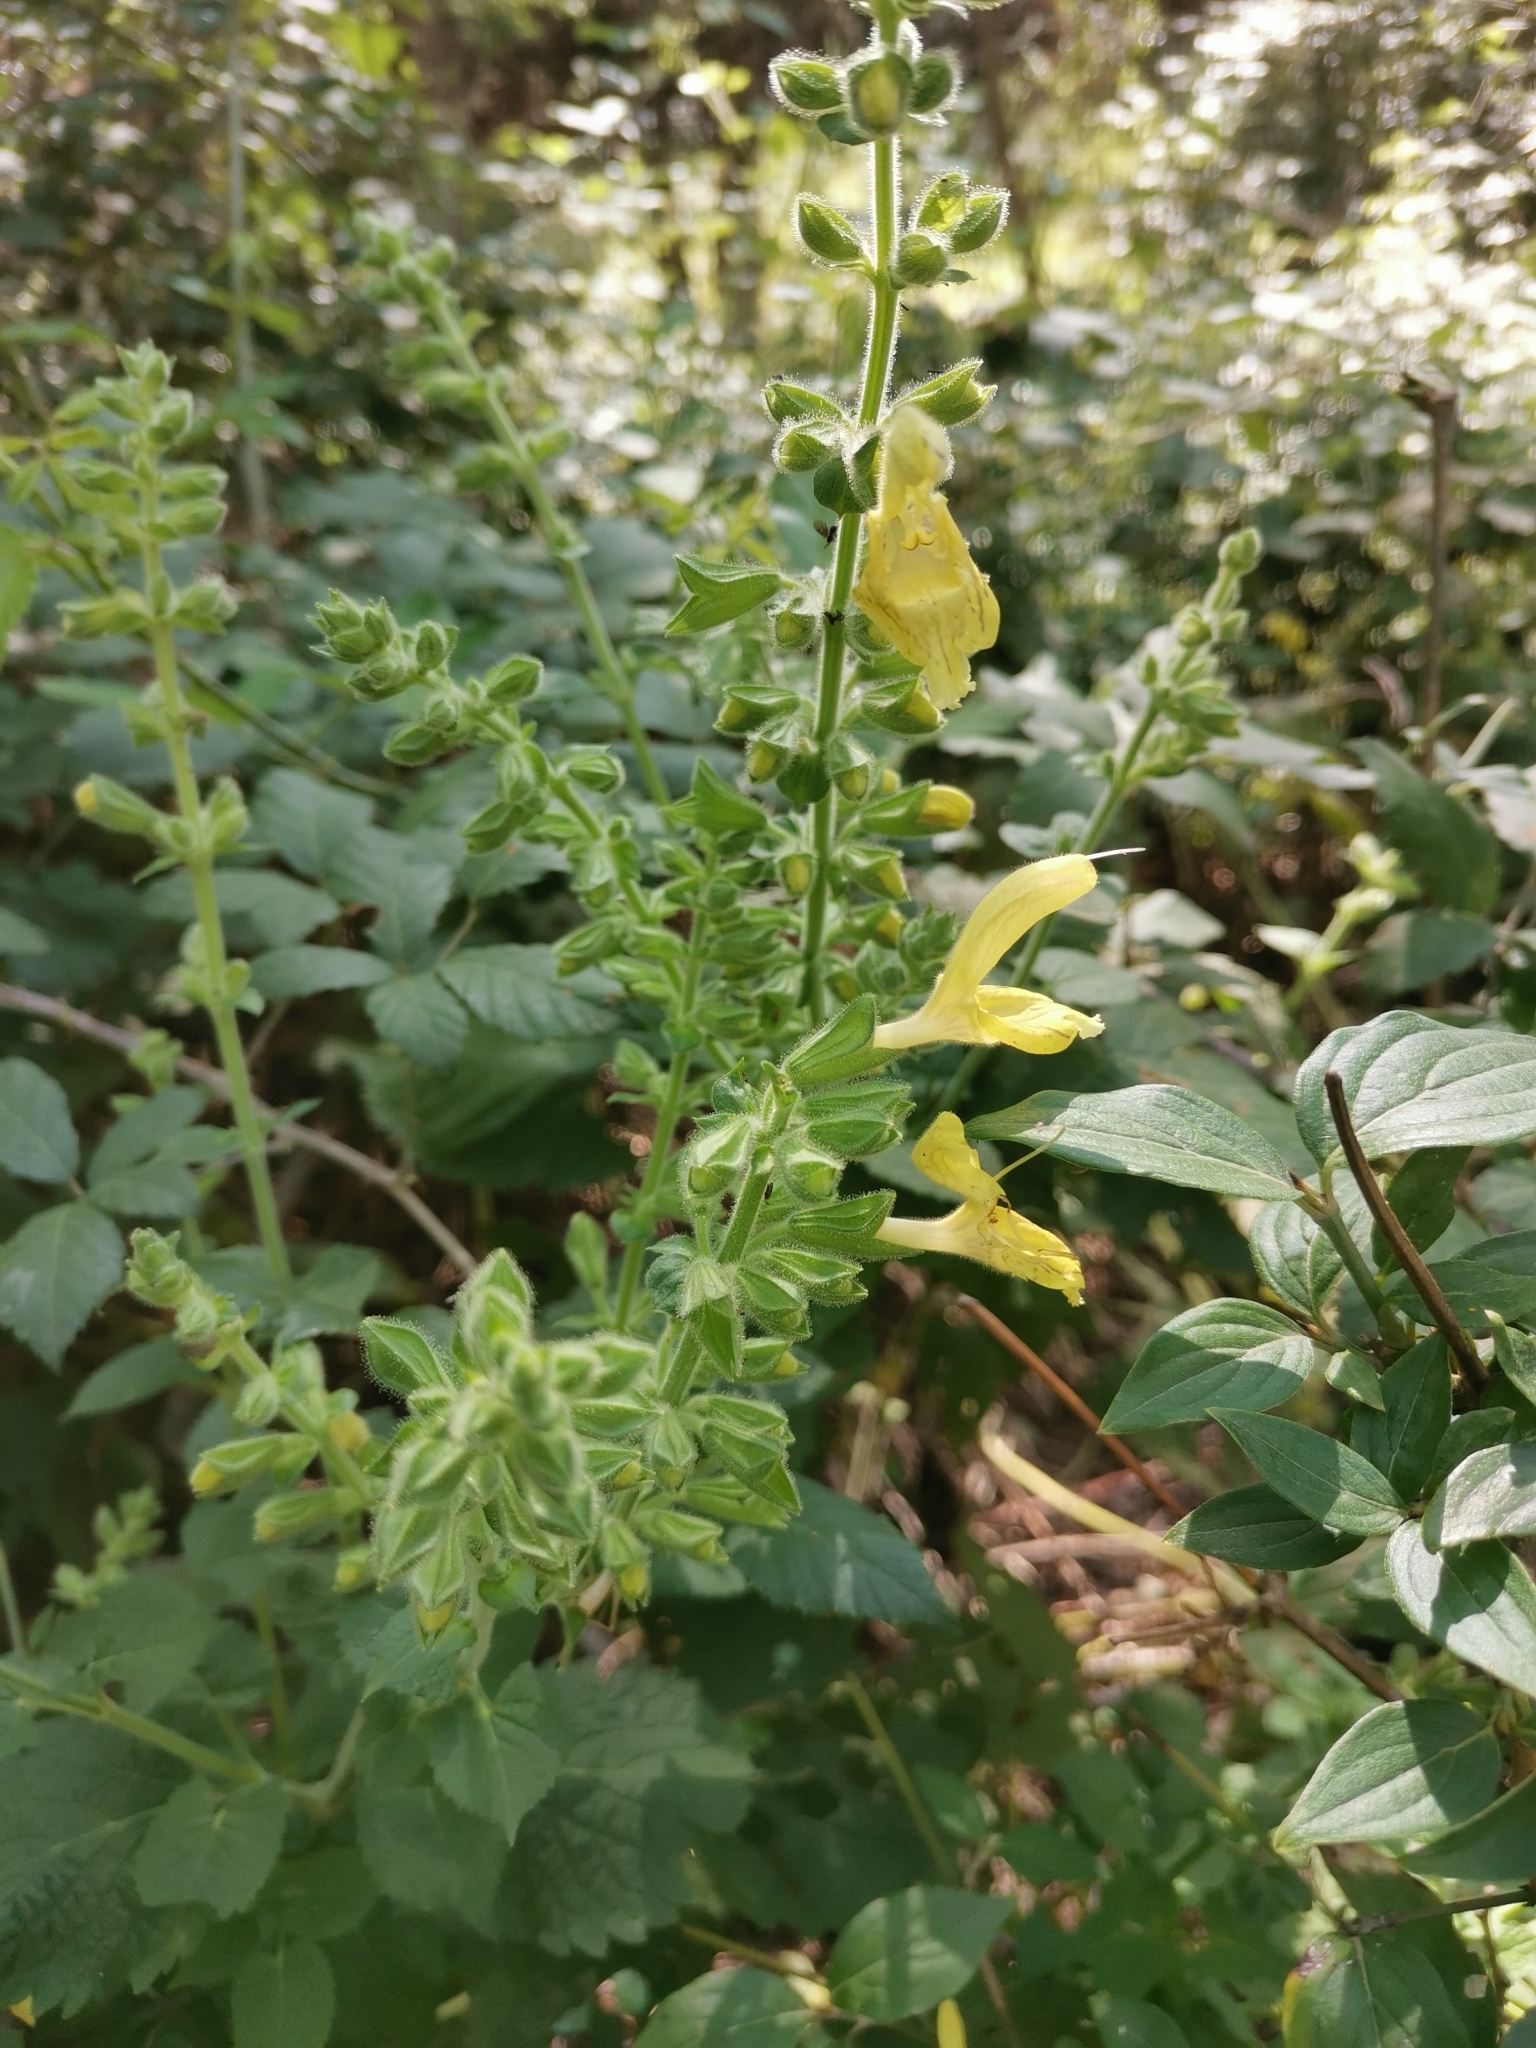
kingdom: Plantae
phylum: Tracheophyta
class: Magnoliopsida
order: Lamiales
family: Lamiaceae
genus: Salvia
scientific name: Salvia glutinosa
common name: Sticky clary
